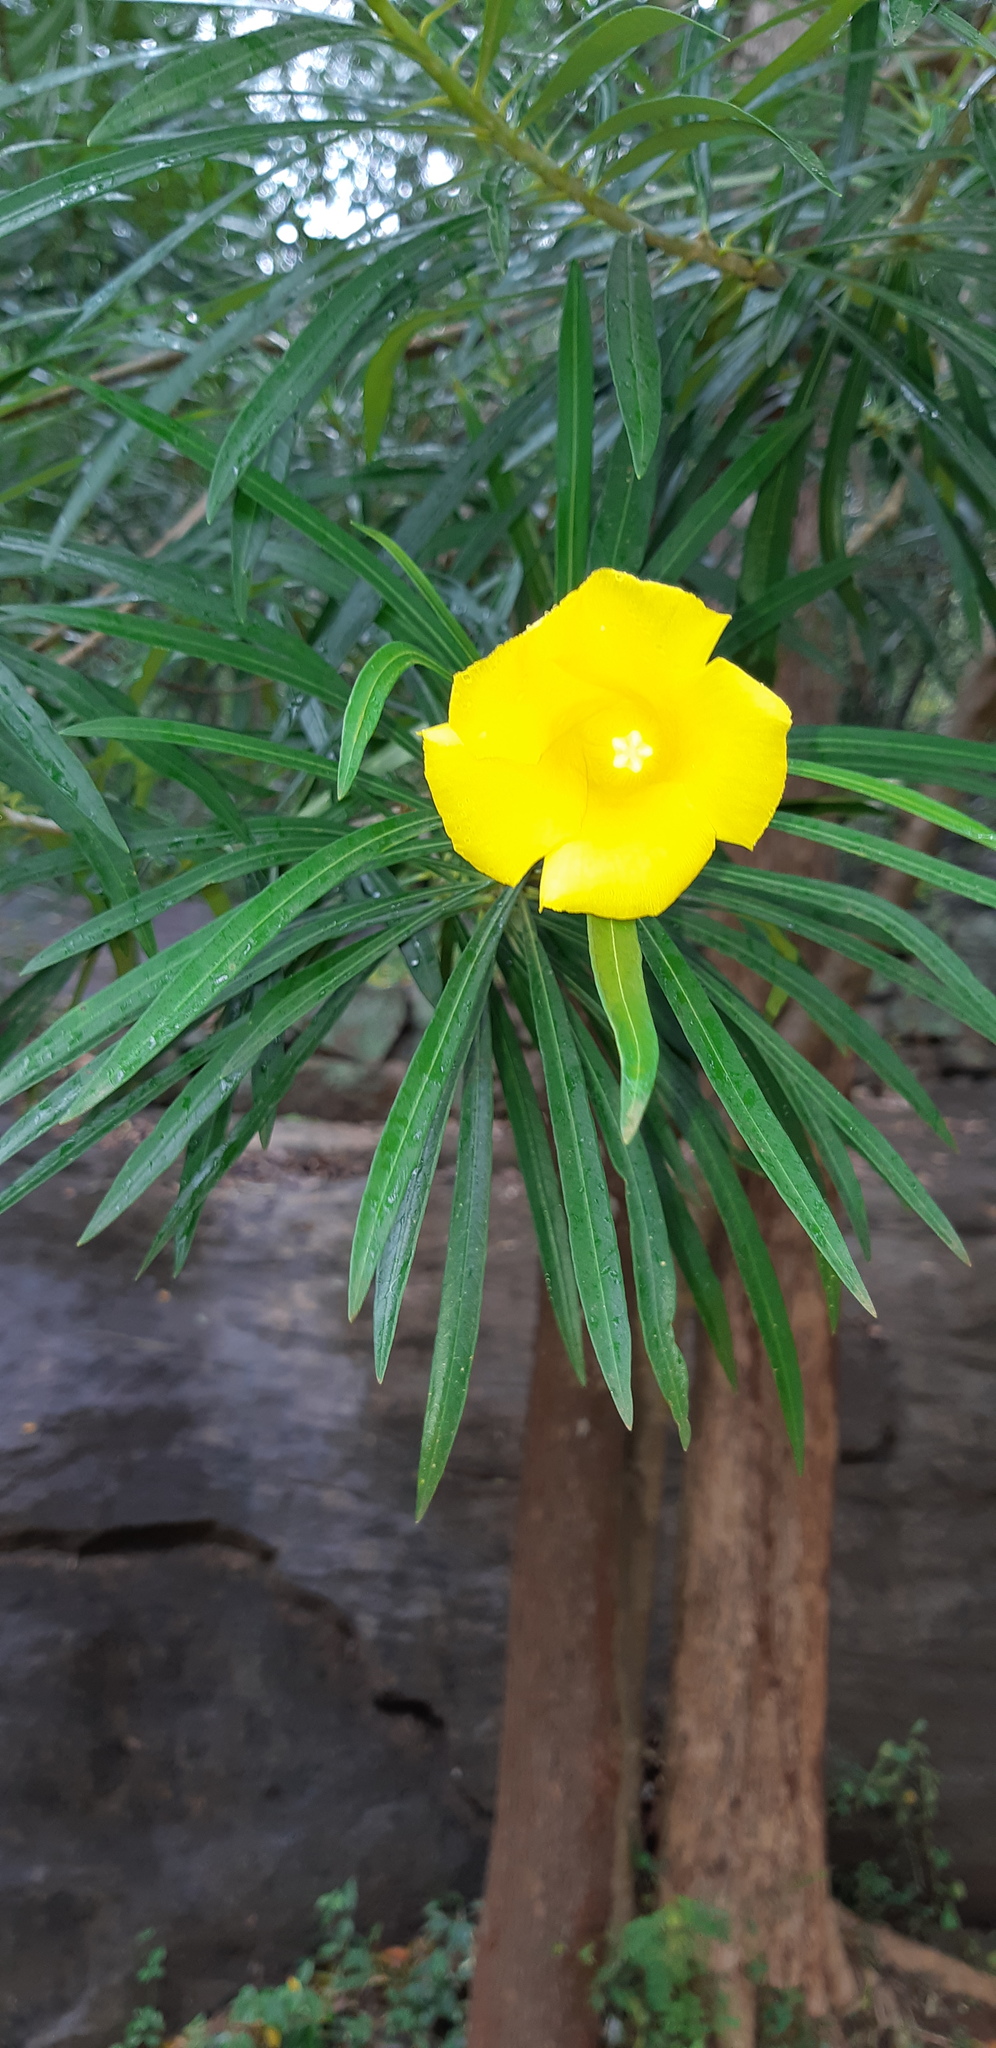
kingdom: Plantae
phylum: Tracheophyta
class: Magnoliopsida
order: Gentianales
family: Apocynaceae
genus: Cascabela
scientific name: Cascabela thevetia
